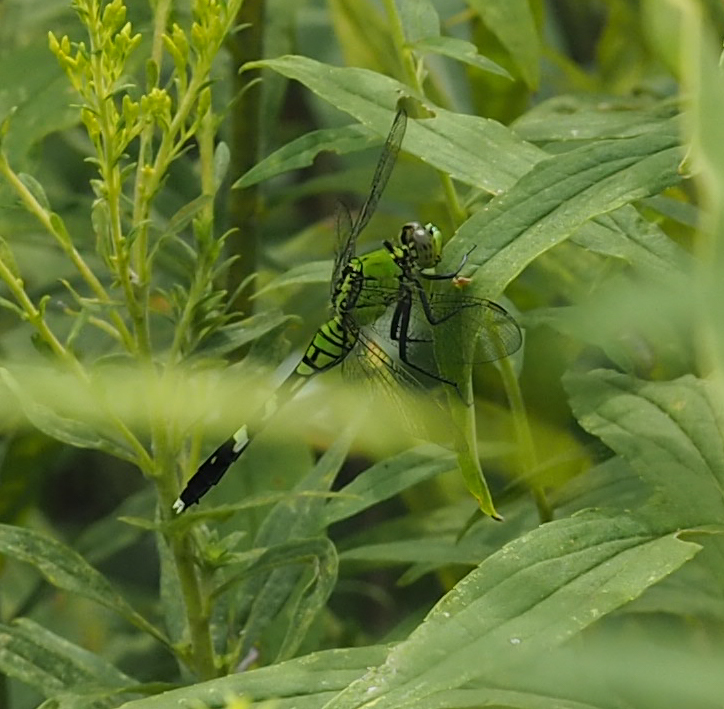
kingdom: Animalia
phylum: Arthropoda
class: Insecta
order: Odonata
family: Libellulidae
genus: Erythemis
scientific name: Erythemis simplicicollis
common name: Eastern pondhawk
